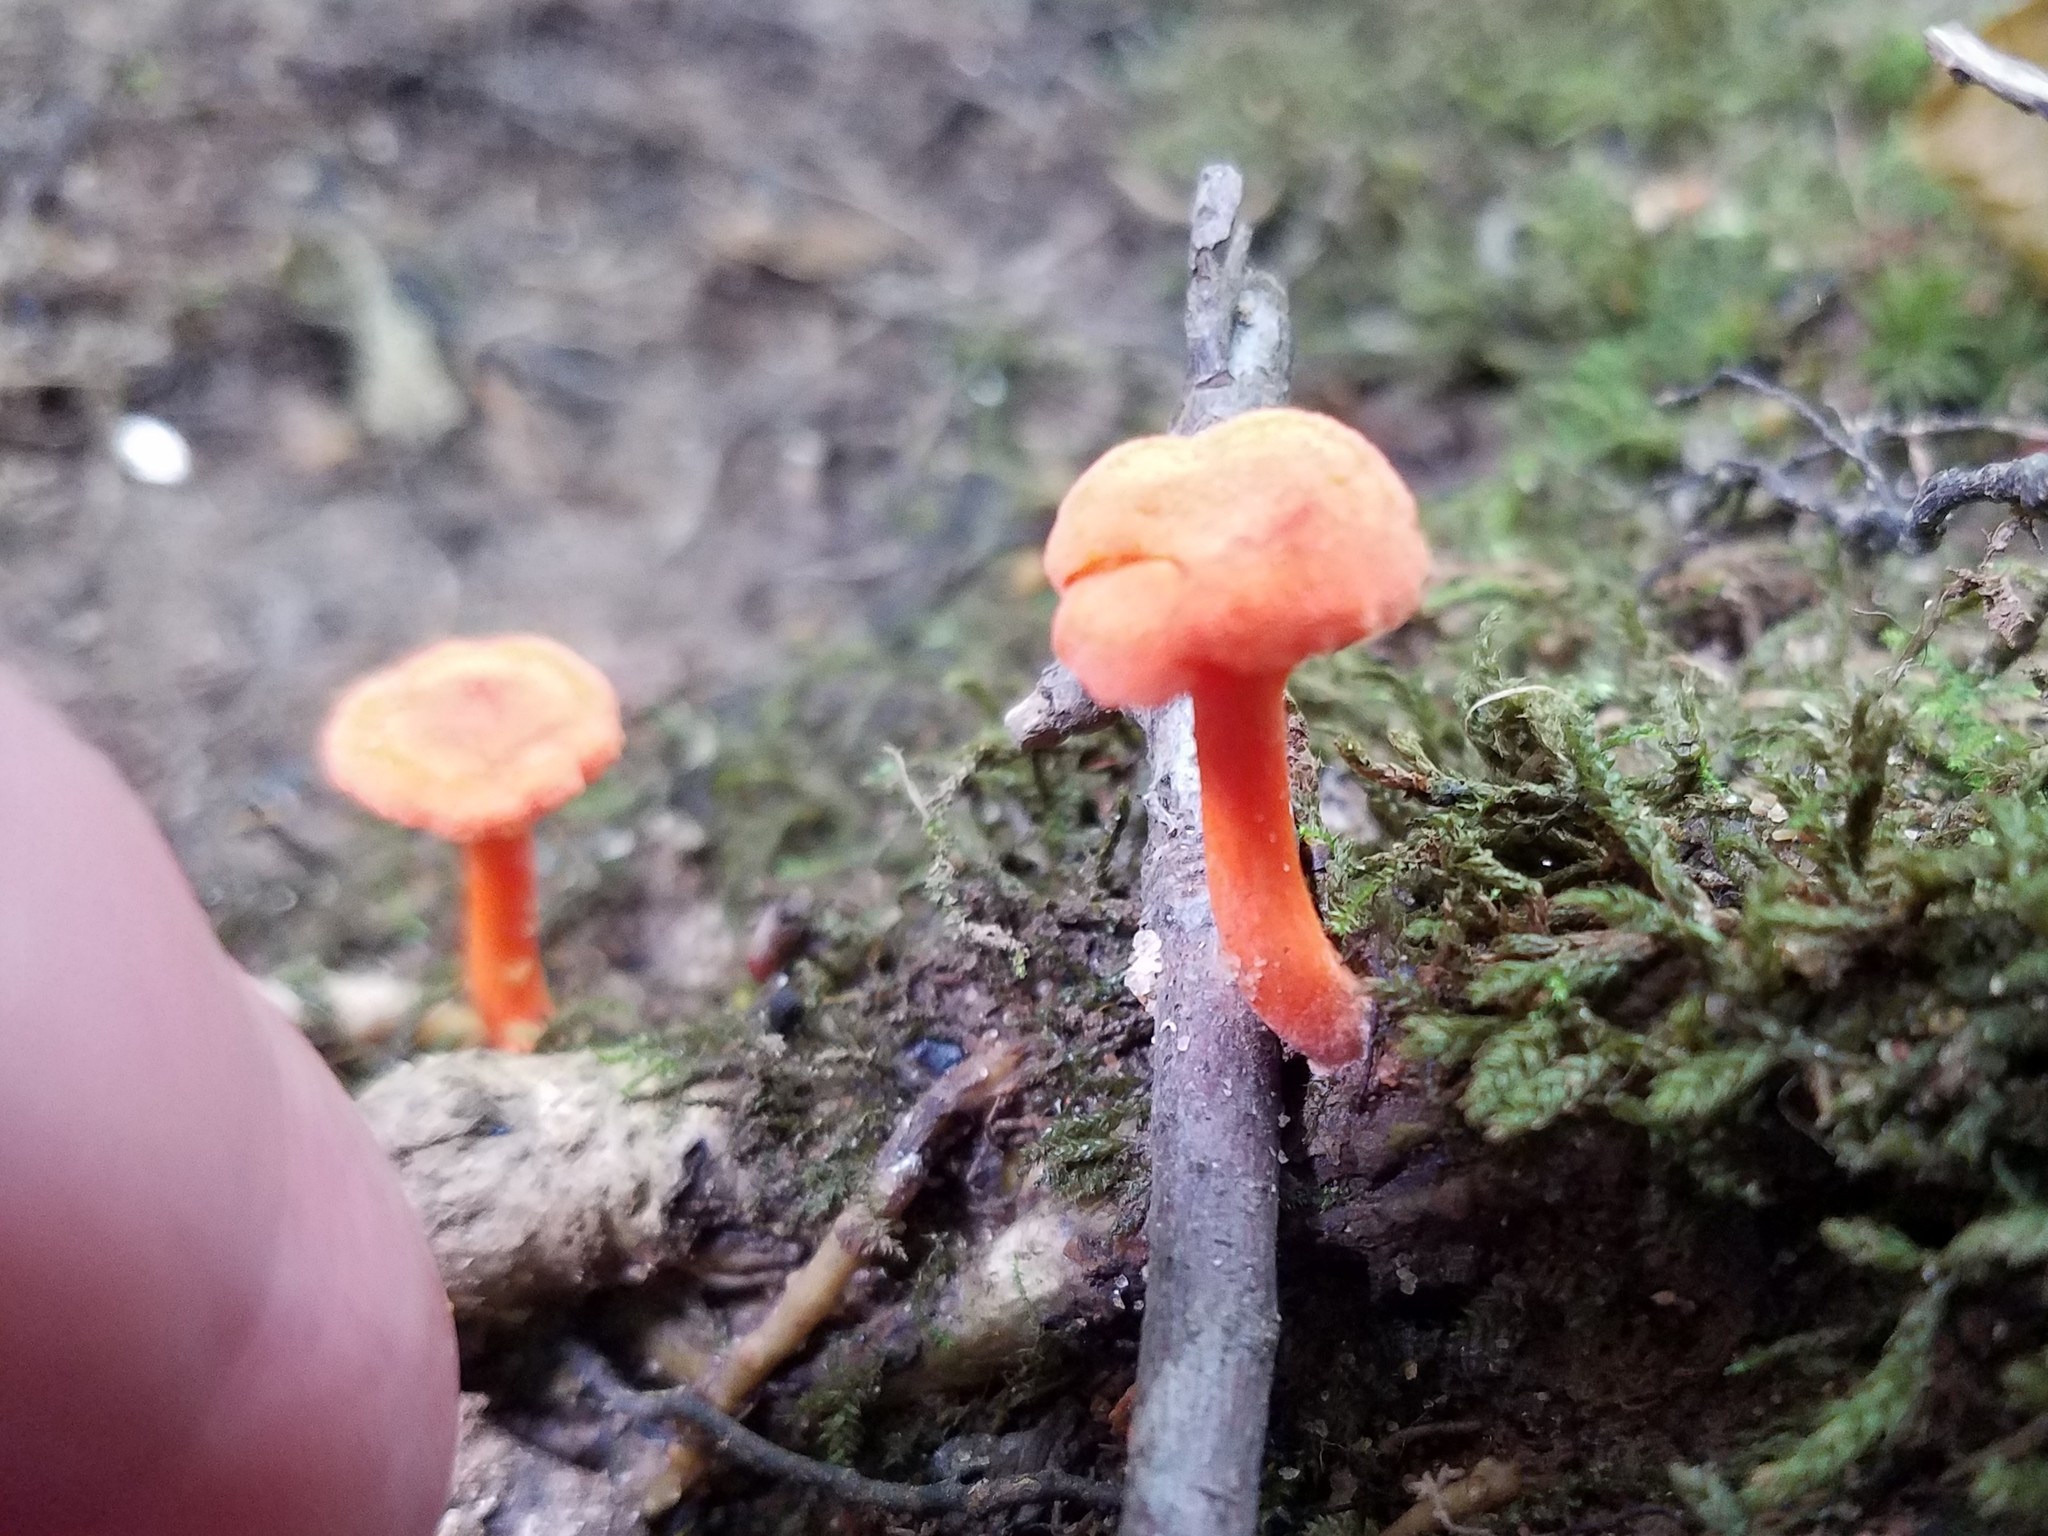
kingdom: Fungi
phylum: Basidiomycota
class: Agaricomycetes
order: Cantharellales
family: Hydnaceae
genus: Cantharellus
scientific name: Cantharellus cinnabarinus
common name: Cinnabar chanterelle
